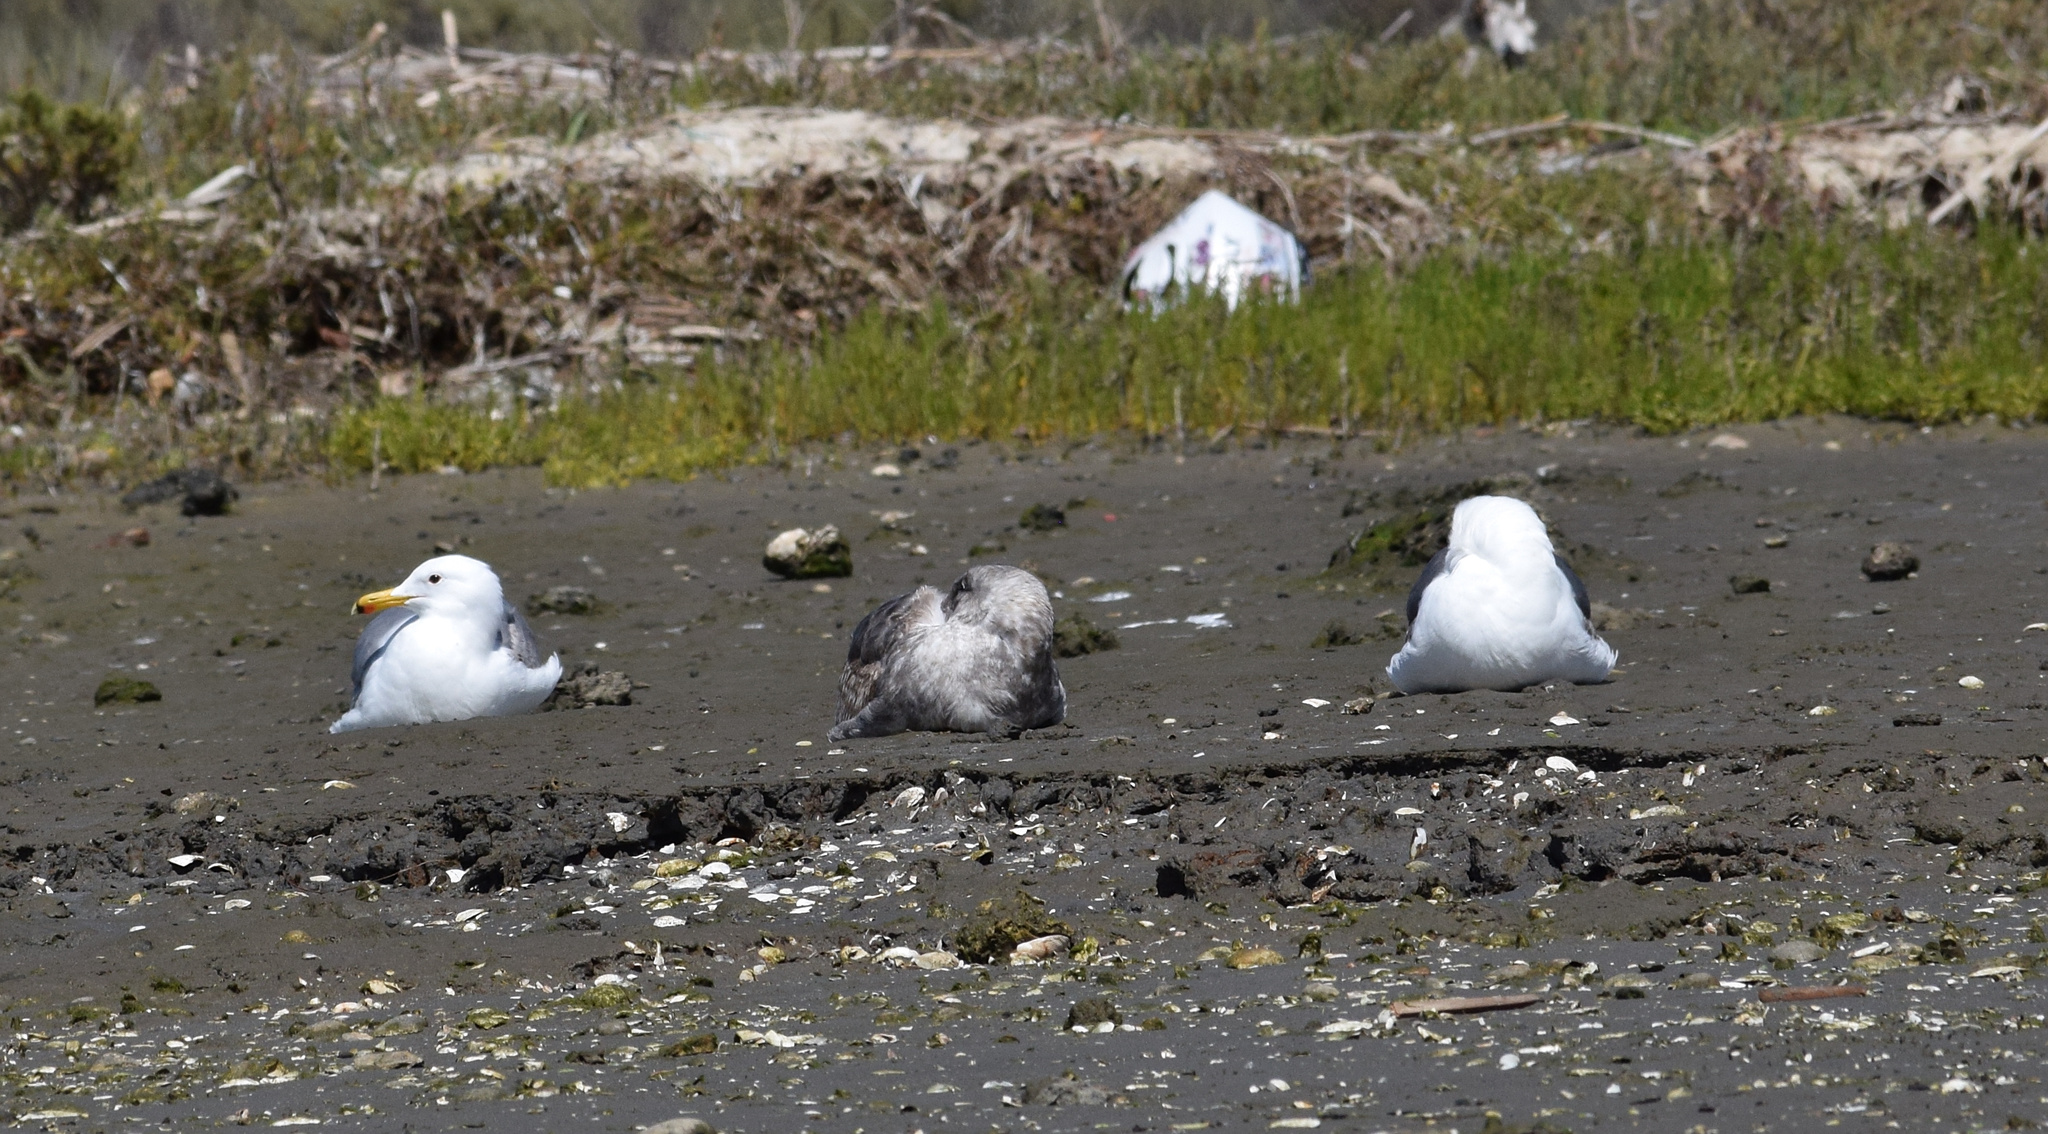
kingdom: Animalia
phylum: Chordata
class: Aves
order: Charadriiformes
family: Laridae
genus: Larus
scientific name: Larus californicus
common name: California gull
